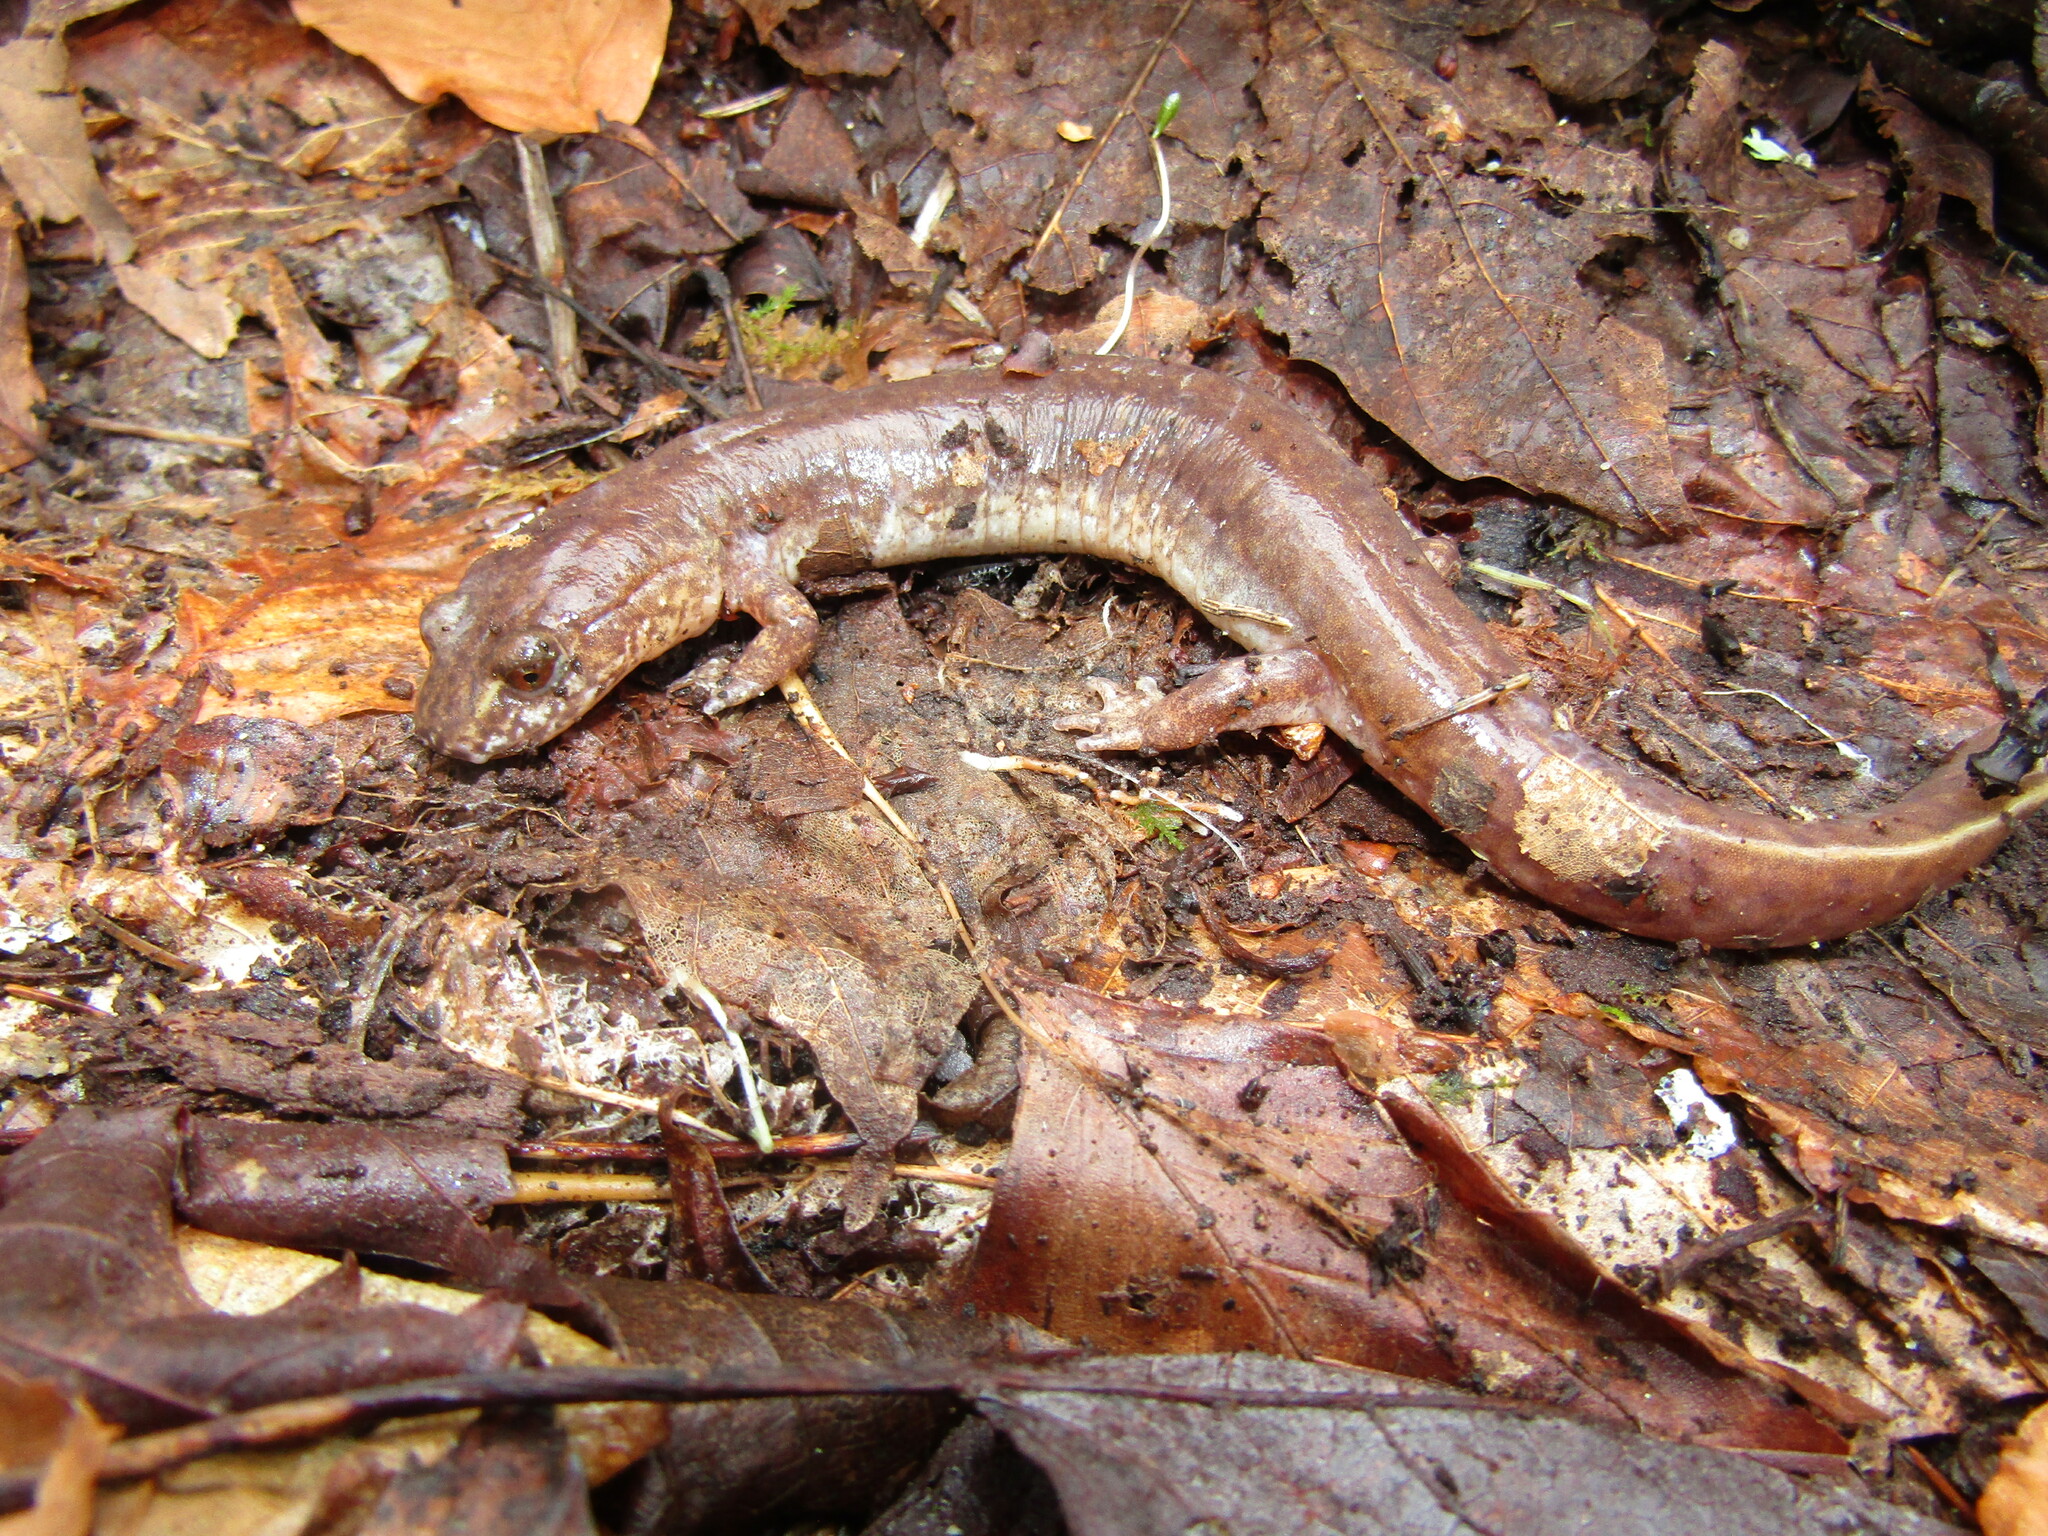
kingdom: Animalia
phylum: Chordata
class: Amphibia
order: Caudata
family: Plethodontidae
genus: Gyrinophilus
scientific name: Gyrinophilus porphyriticus
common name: Spring salamander
